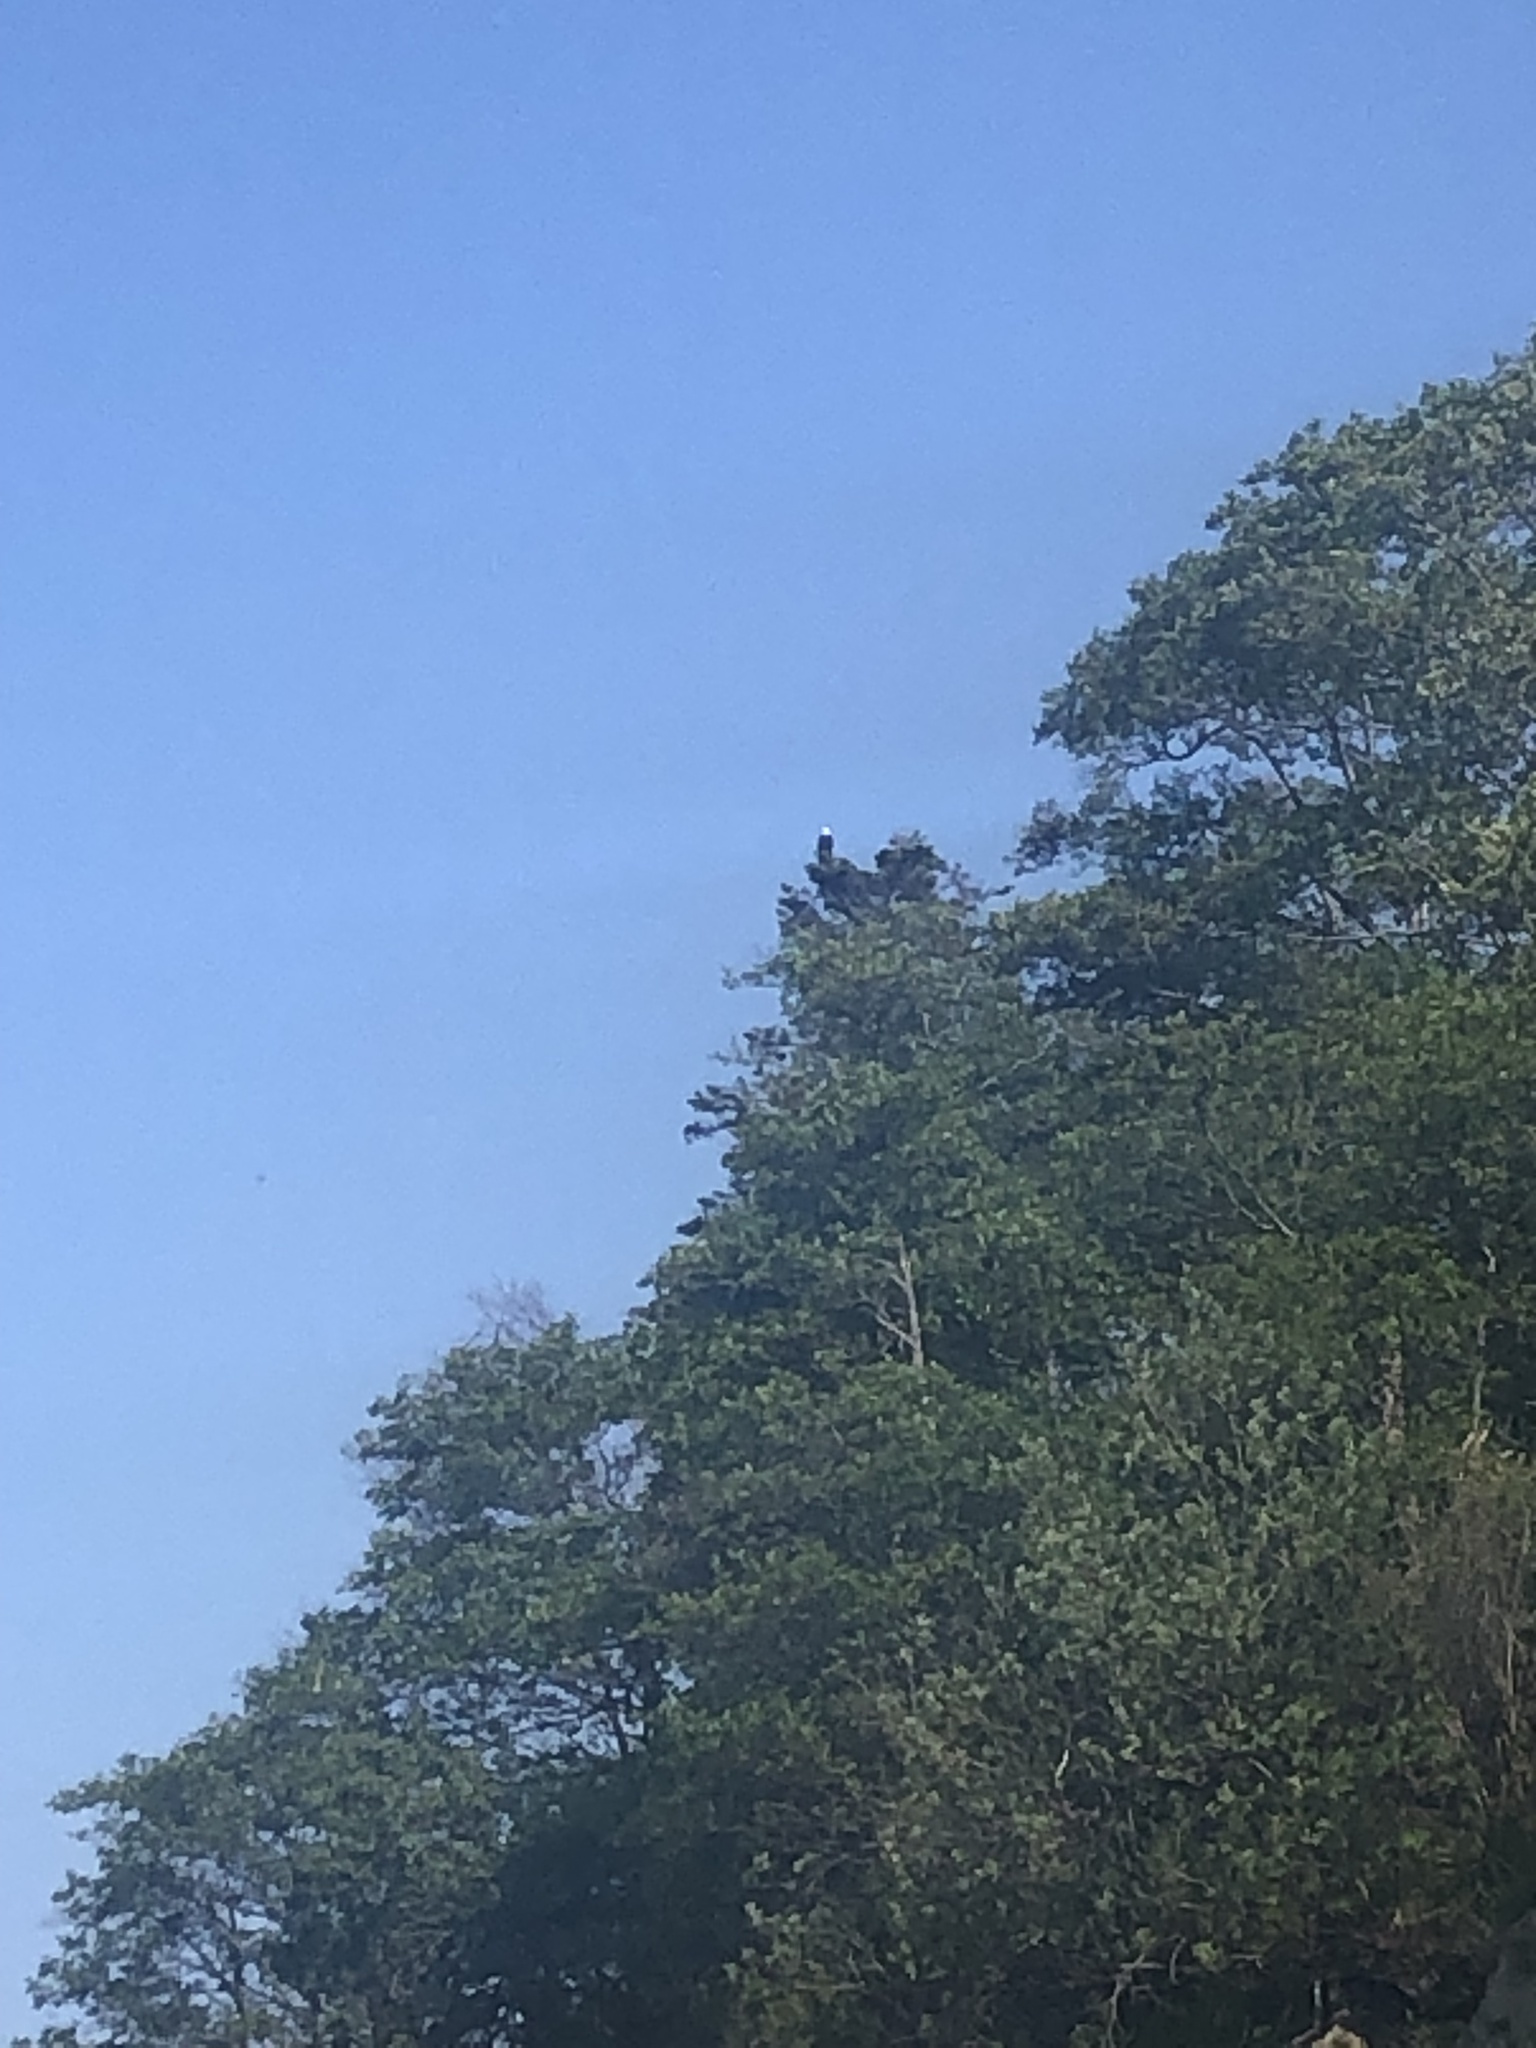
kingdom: Animalia
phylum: Chordata
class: Aves
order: Accipitriformes
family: Accipitridae
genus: Haliaeetus
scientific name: Haliaeetus leucocephalus
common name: Bald eagle
